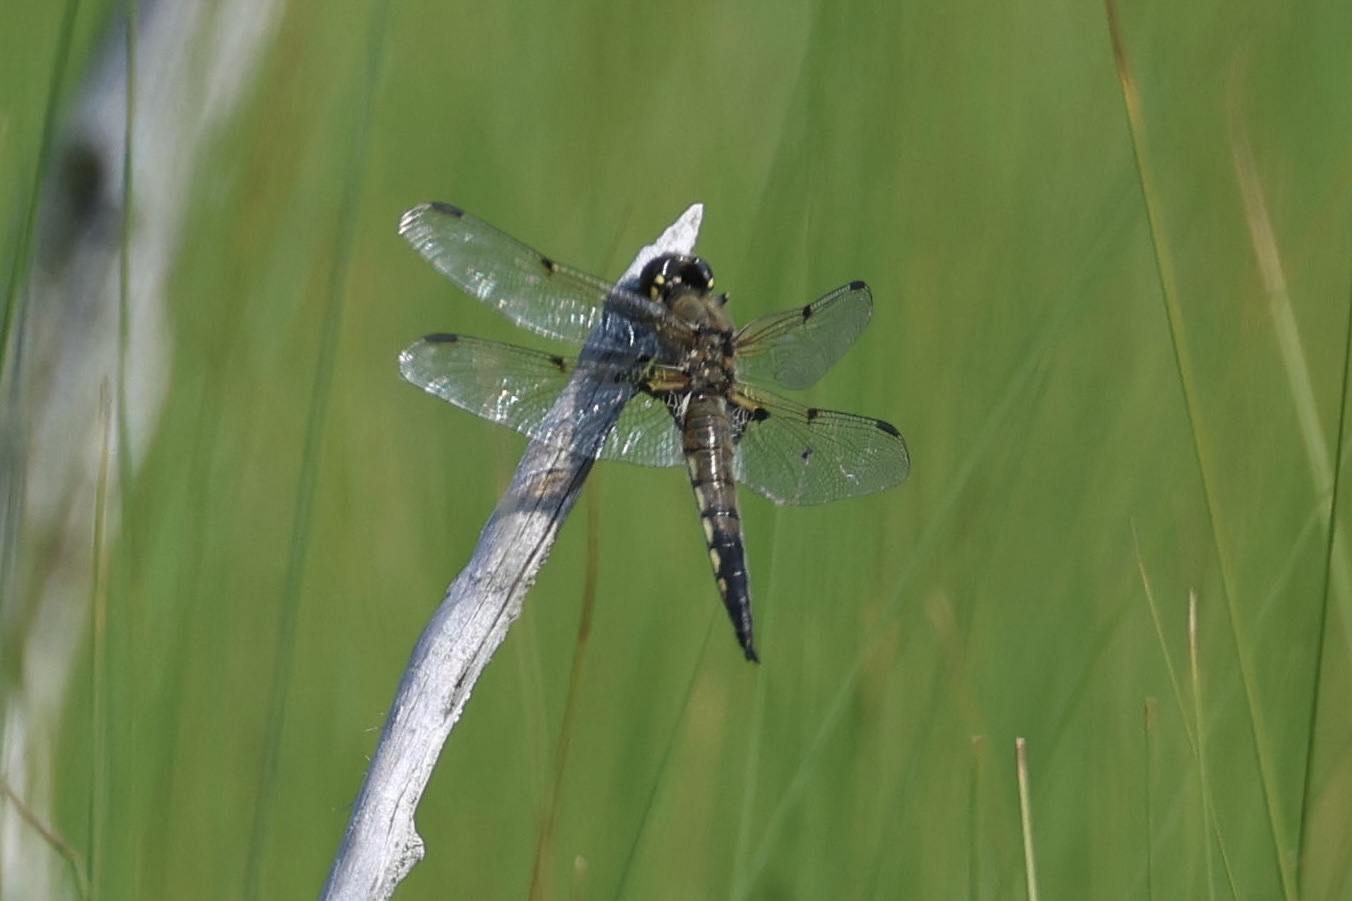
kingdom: Animalia
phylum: Arthropoda
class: Insecta
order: Odonata
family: Libellulidae
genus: Libellula
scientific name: Libellula quadrimaculata
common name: Four-spotted chaser
